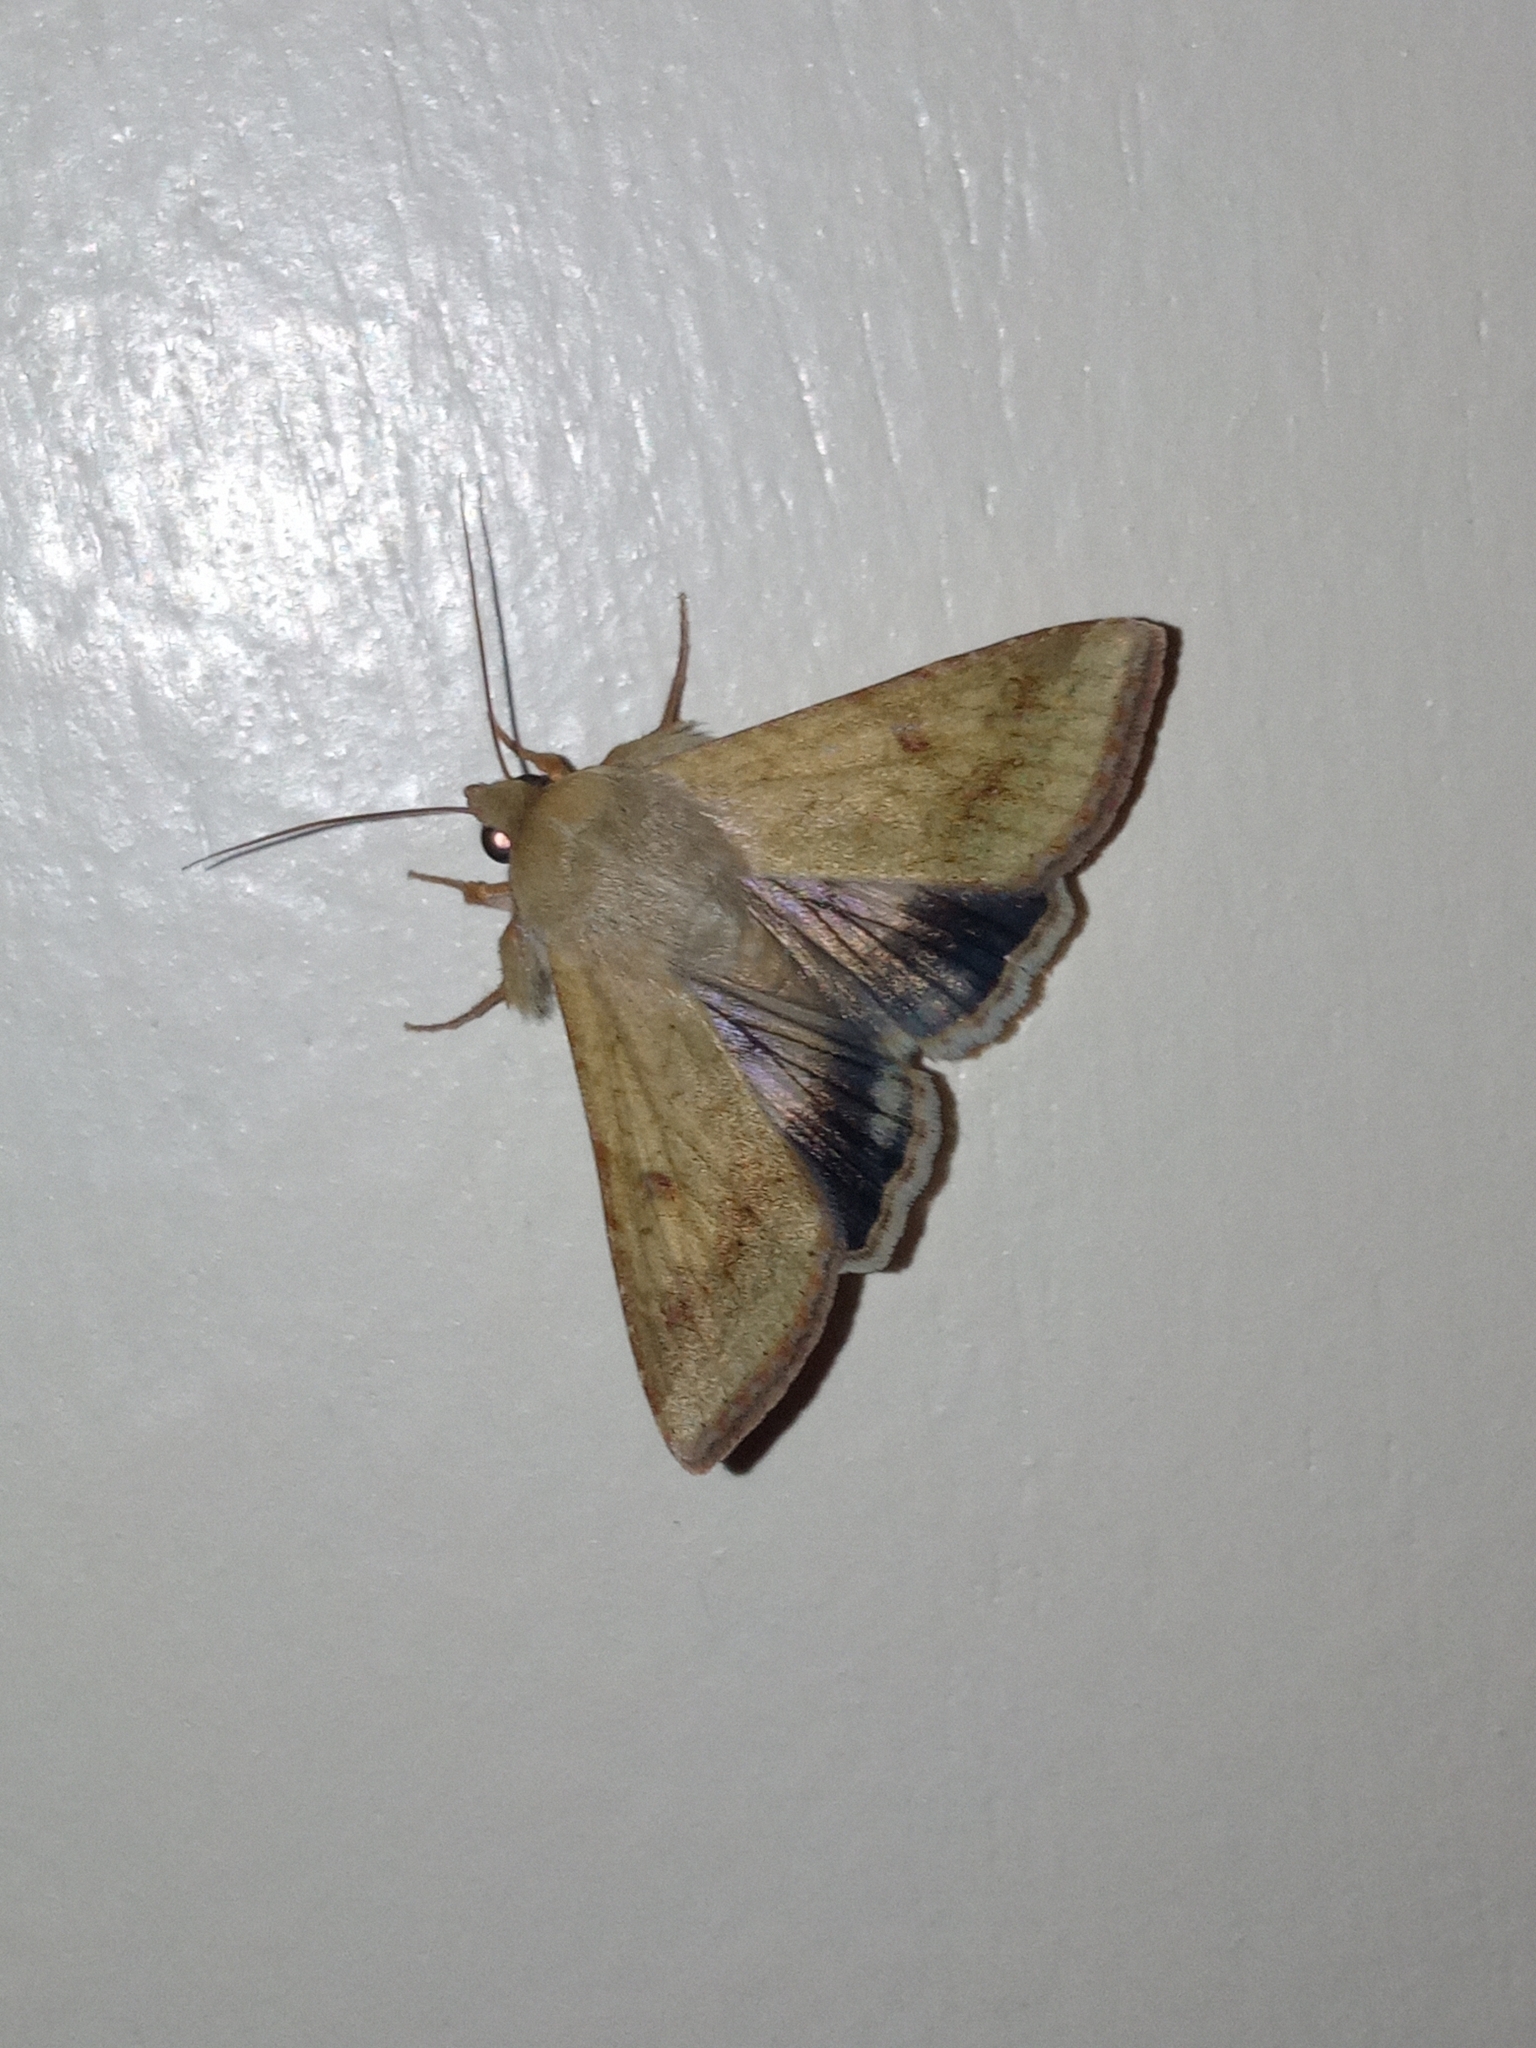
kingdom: Animalia
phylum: Arthropoda
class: Insecta
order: Lepidoptera
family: Noctuidae
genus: Helicoverpa
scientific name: Helicoverpa armigera
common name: Cotton bollworm
